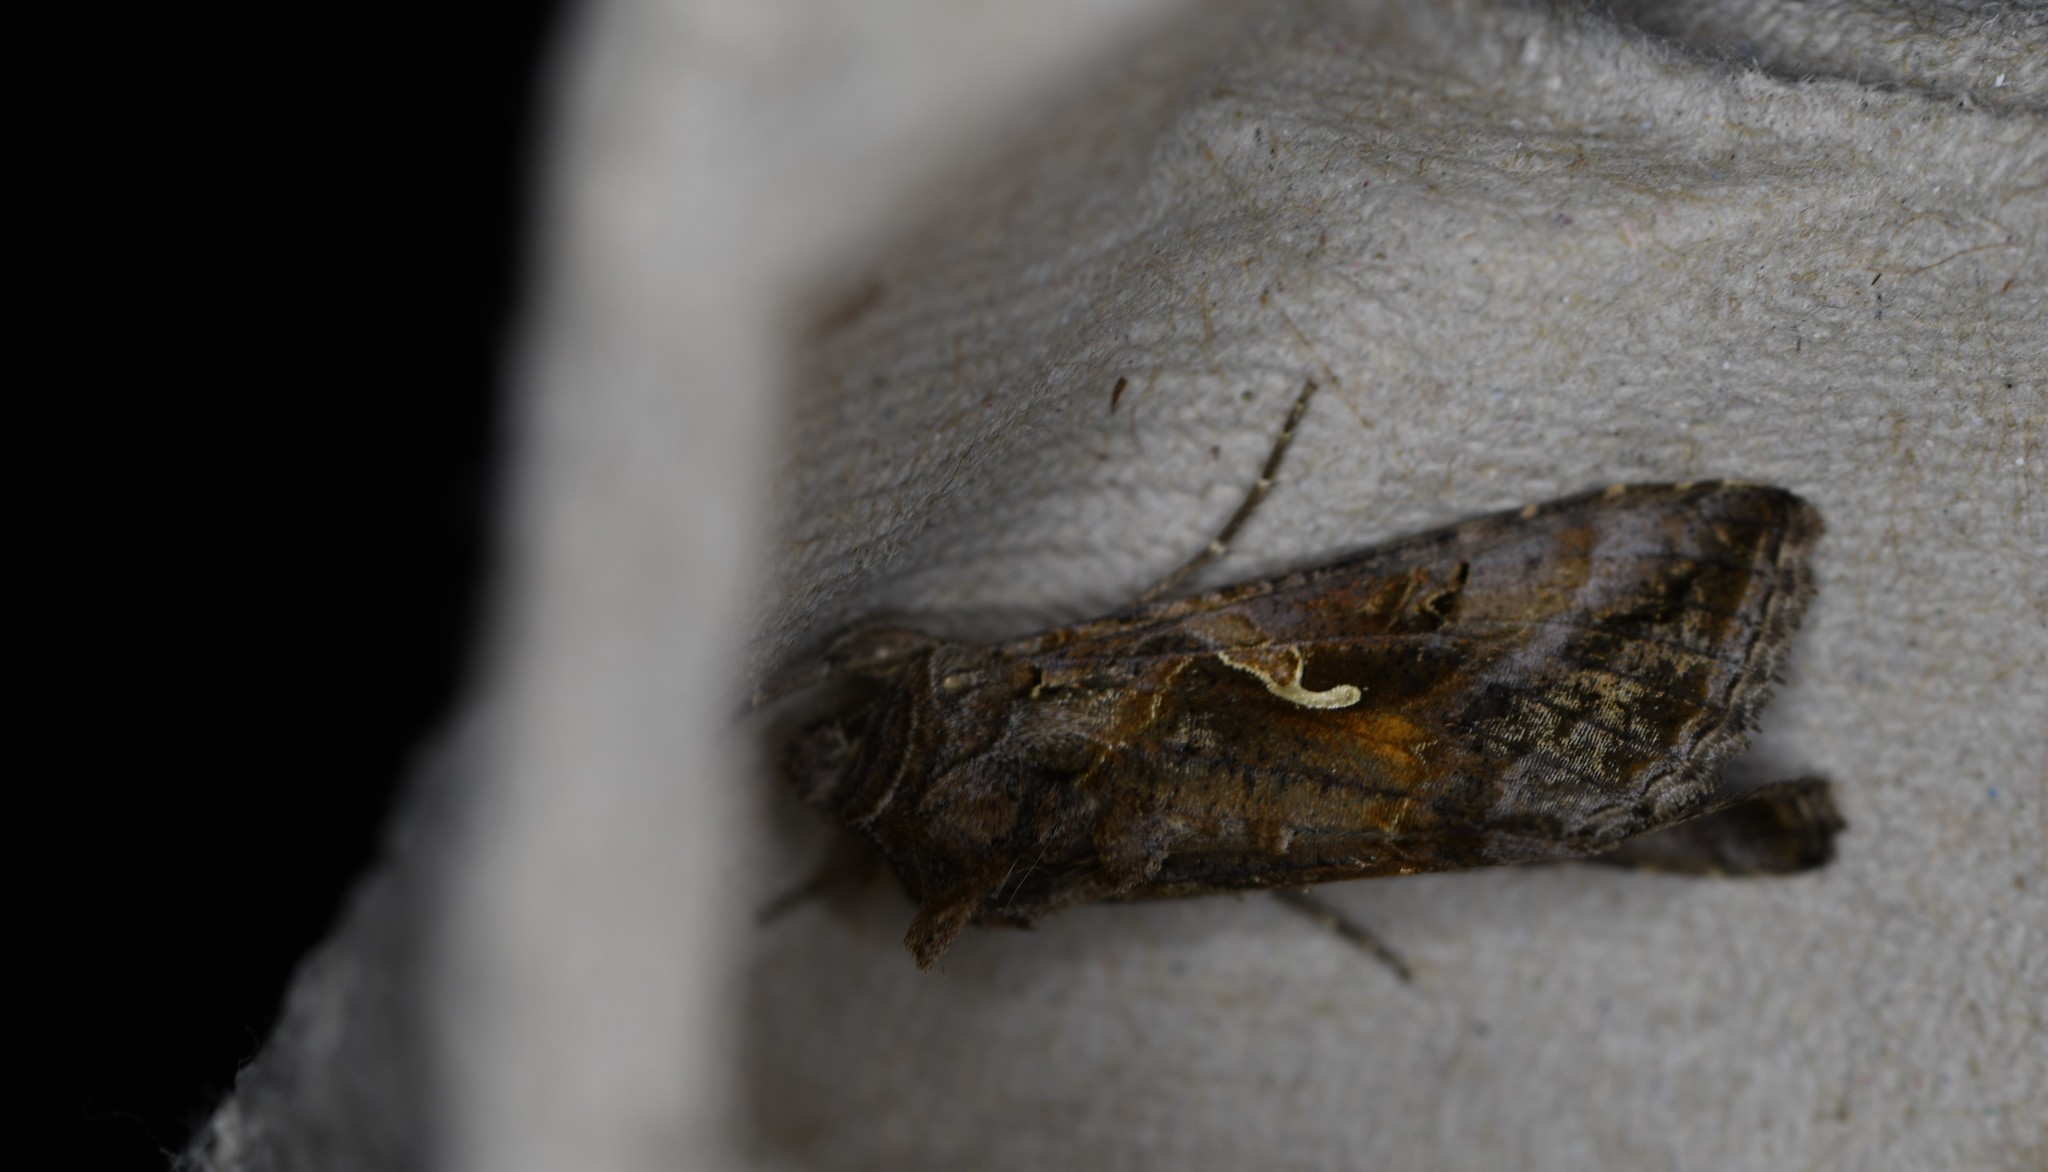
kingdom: Animalia
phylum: Arthropoda
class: Insecta
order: Lepidoptera
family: Noctuidae
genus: Autographa
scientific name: Autographa gamma
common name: Silver y
